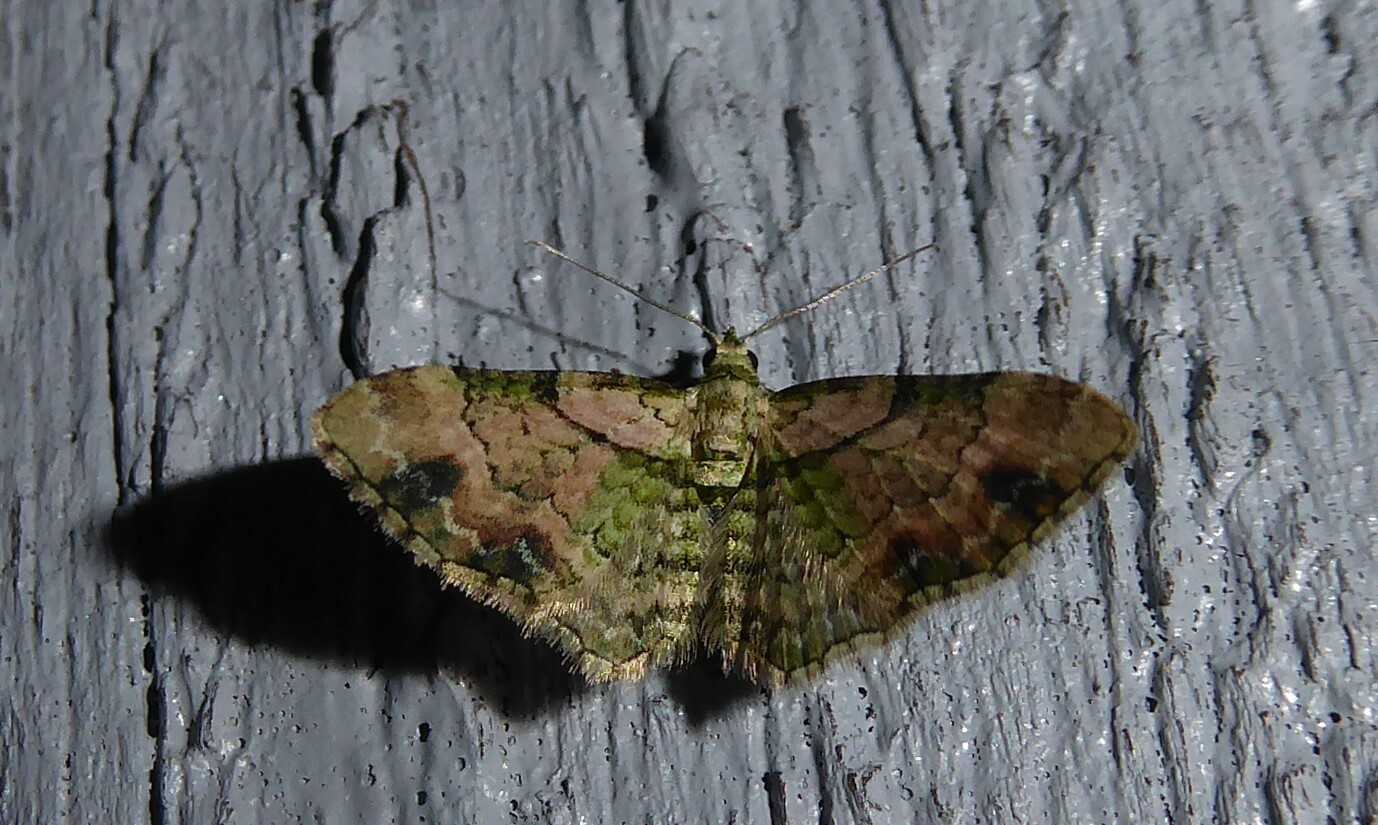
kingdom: Animalia
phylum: Arthropoda
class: Insecta
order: Lepidoptera
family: Geometridae
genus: Chloroclystis
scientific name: Chloroclystis
